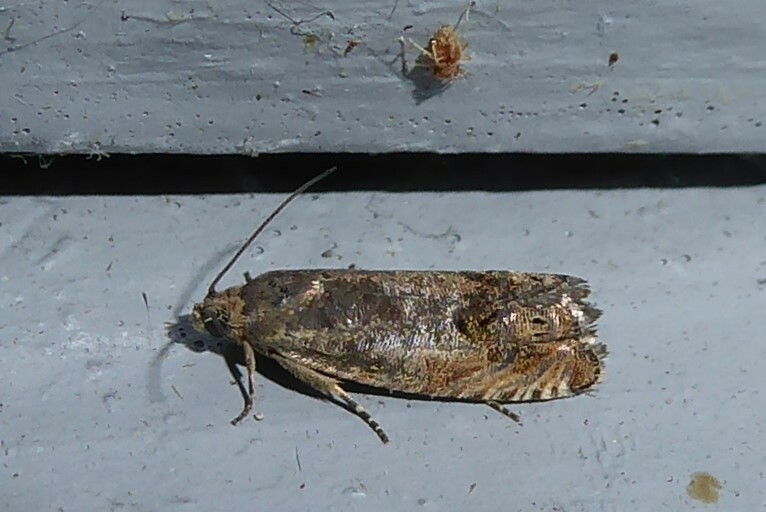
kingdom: Animalia
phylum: Arthropoda
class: Insecta
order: Lepidoptera
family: Tortricidae
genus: Cydia
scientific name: Cydia succedana
